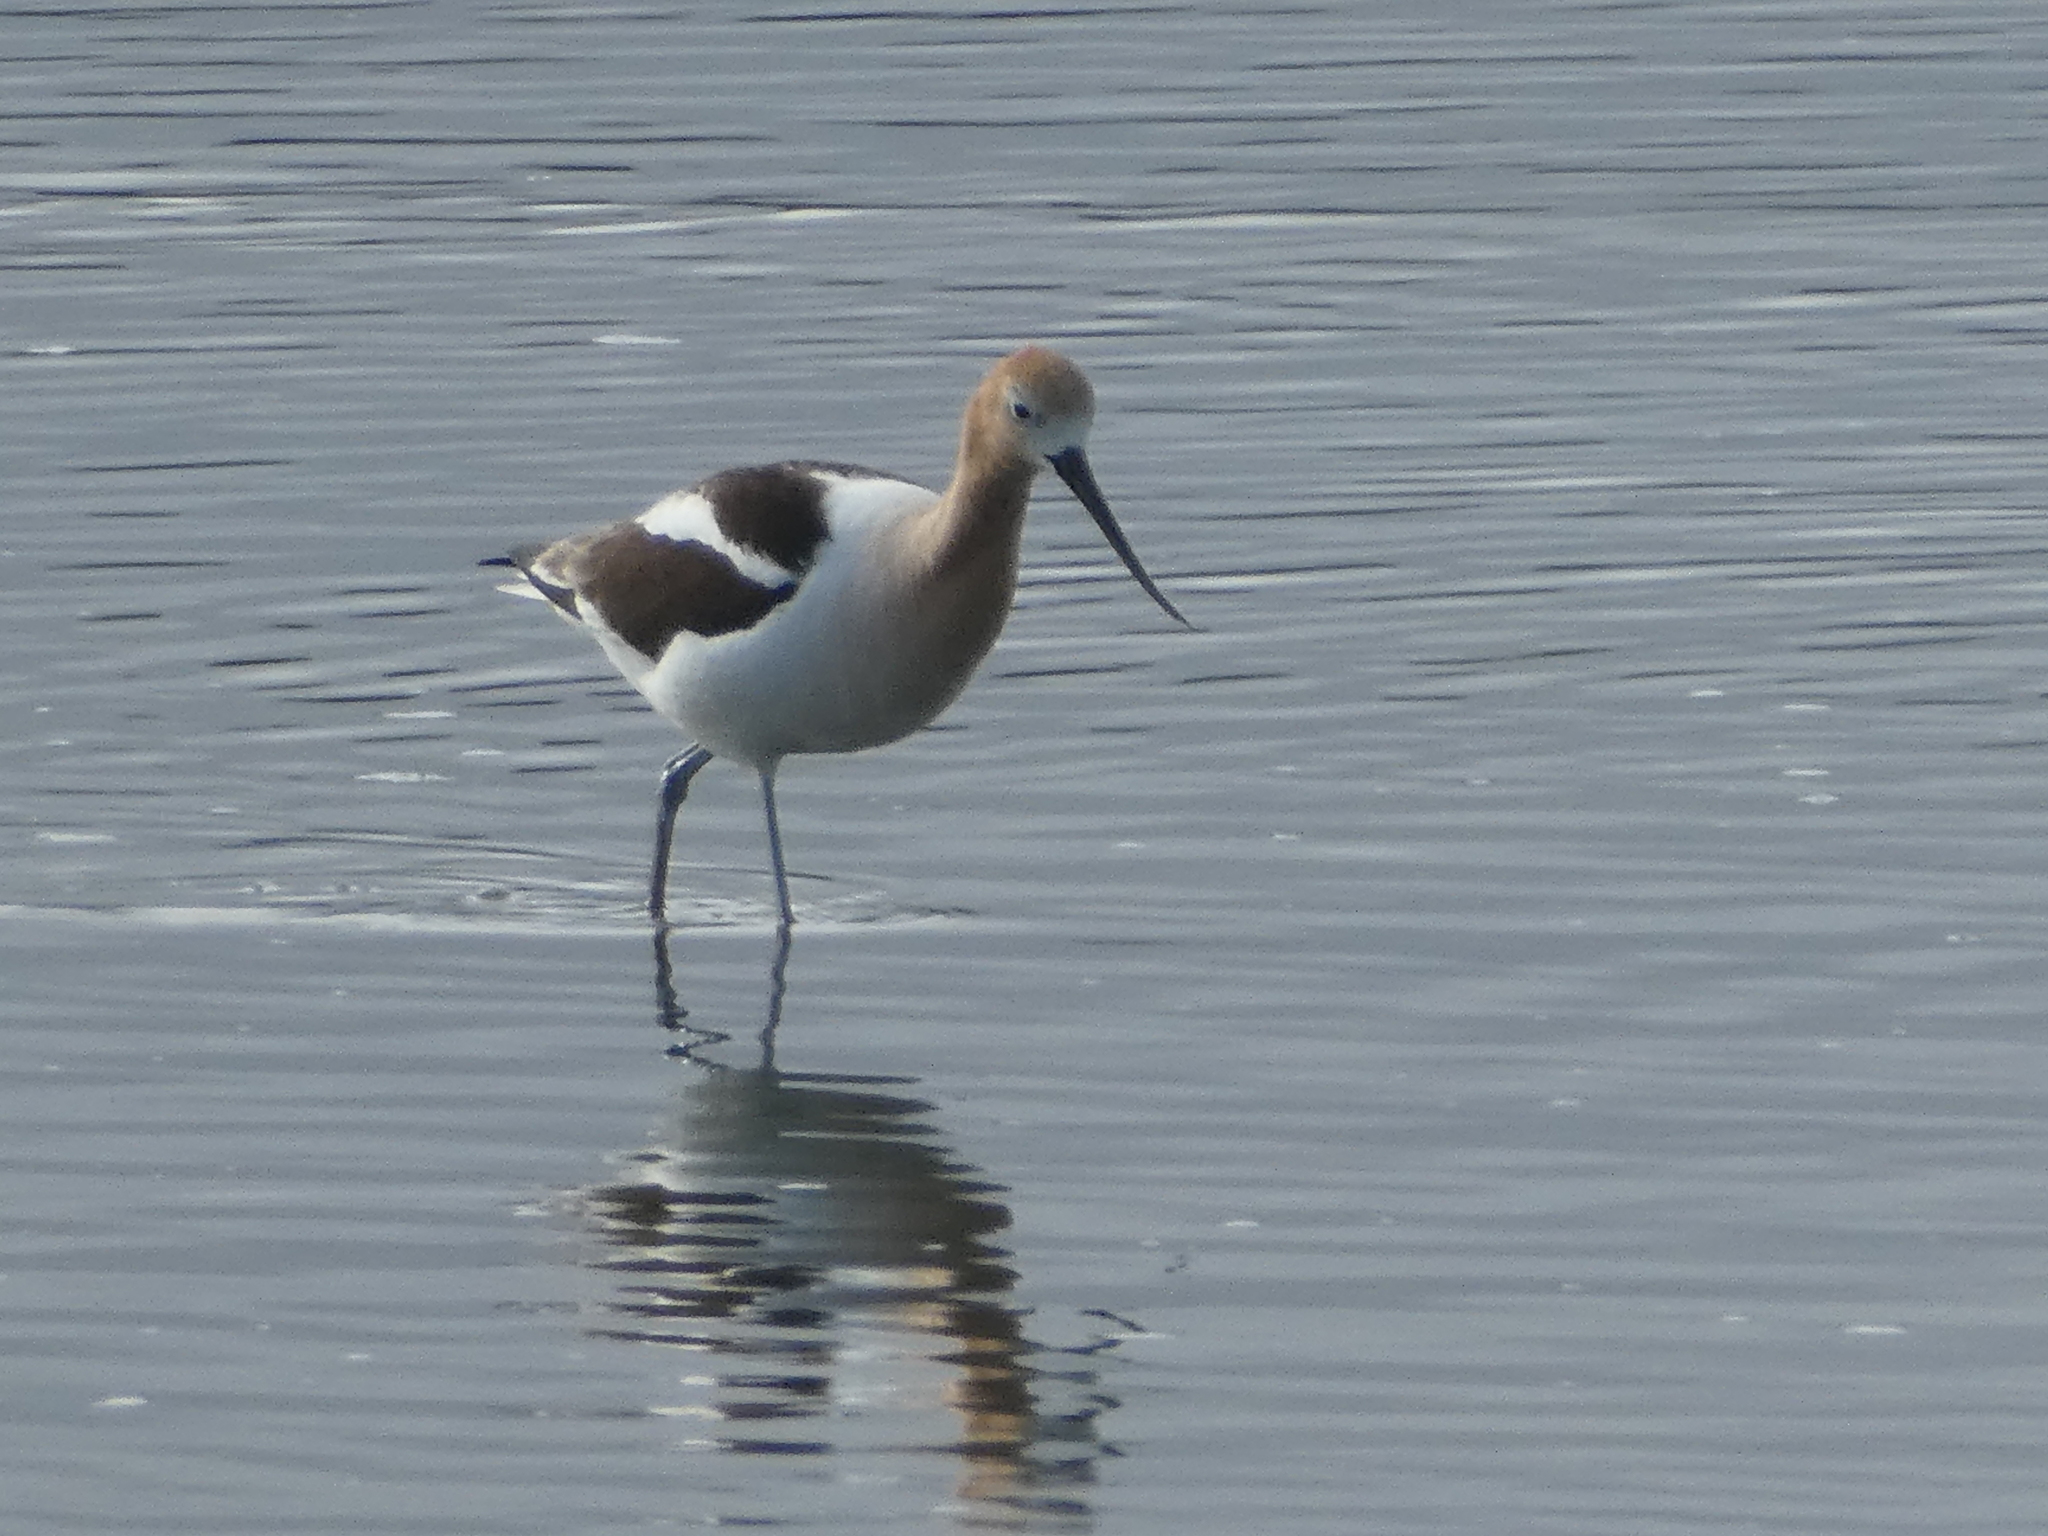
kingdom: Animalia
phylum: Chordata
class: Aves
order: Charadriiformes
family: Recurvirostridae
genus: Recurvirostra
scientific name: Recurvirostra americana
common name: American avocet
